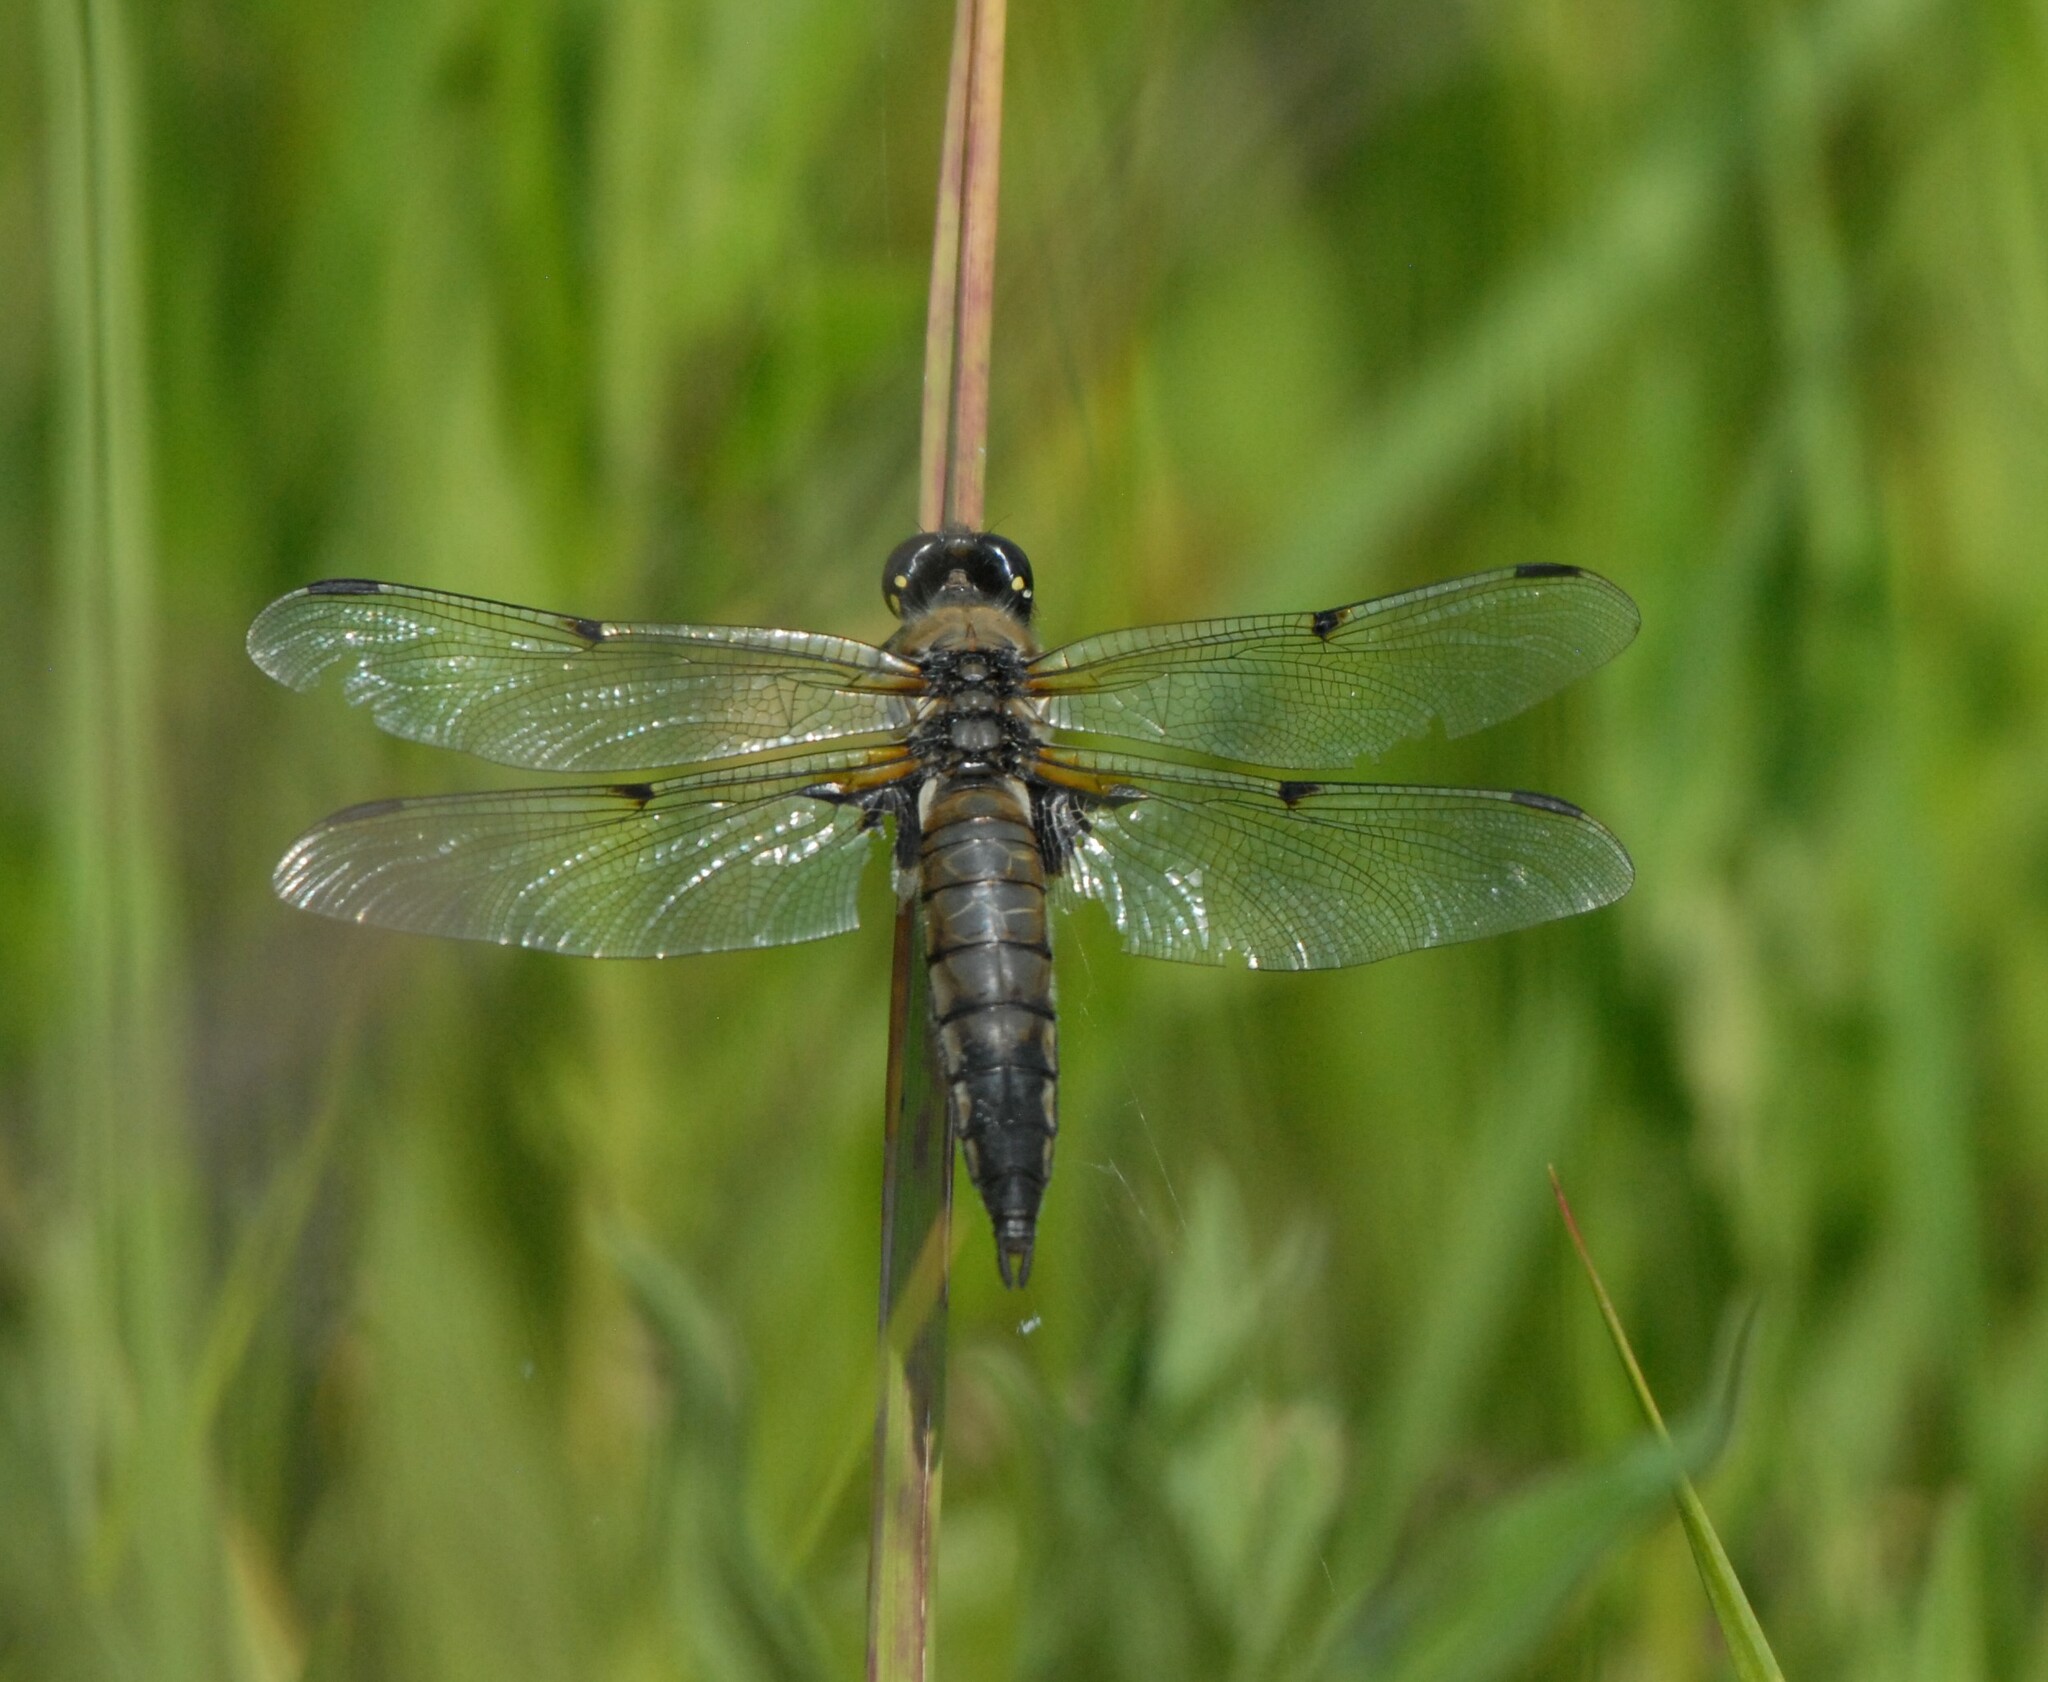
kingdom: Animalia
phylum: Arthropoda
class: Insecta
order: Odonata
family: Libellulidae
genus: Libellula
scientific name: Libellula quadrimaculata
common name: Four-spotted chaser
